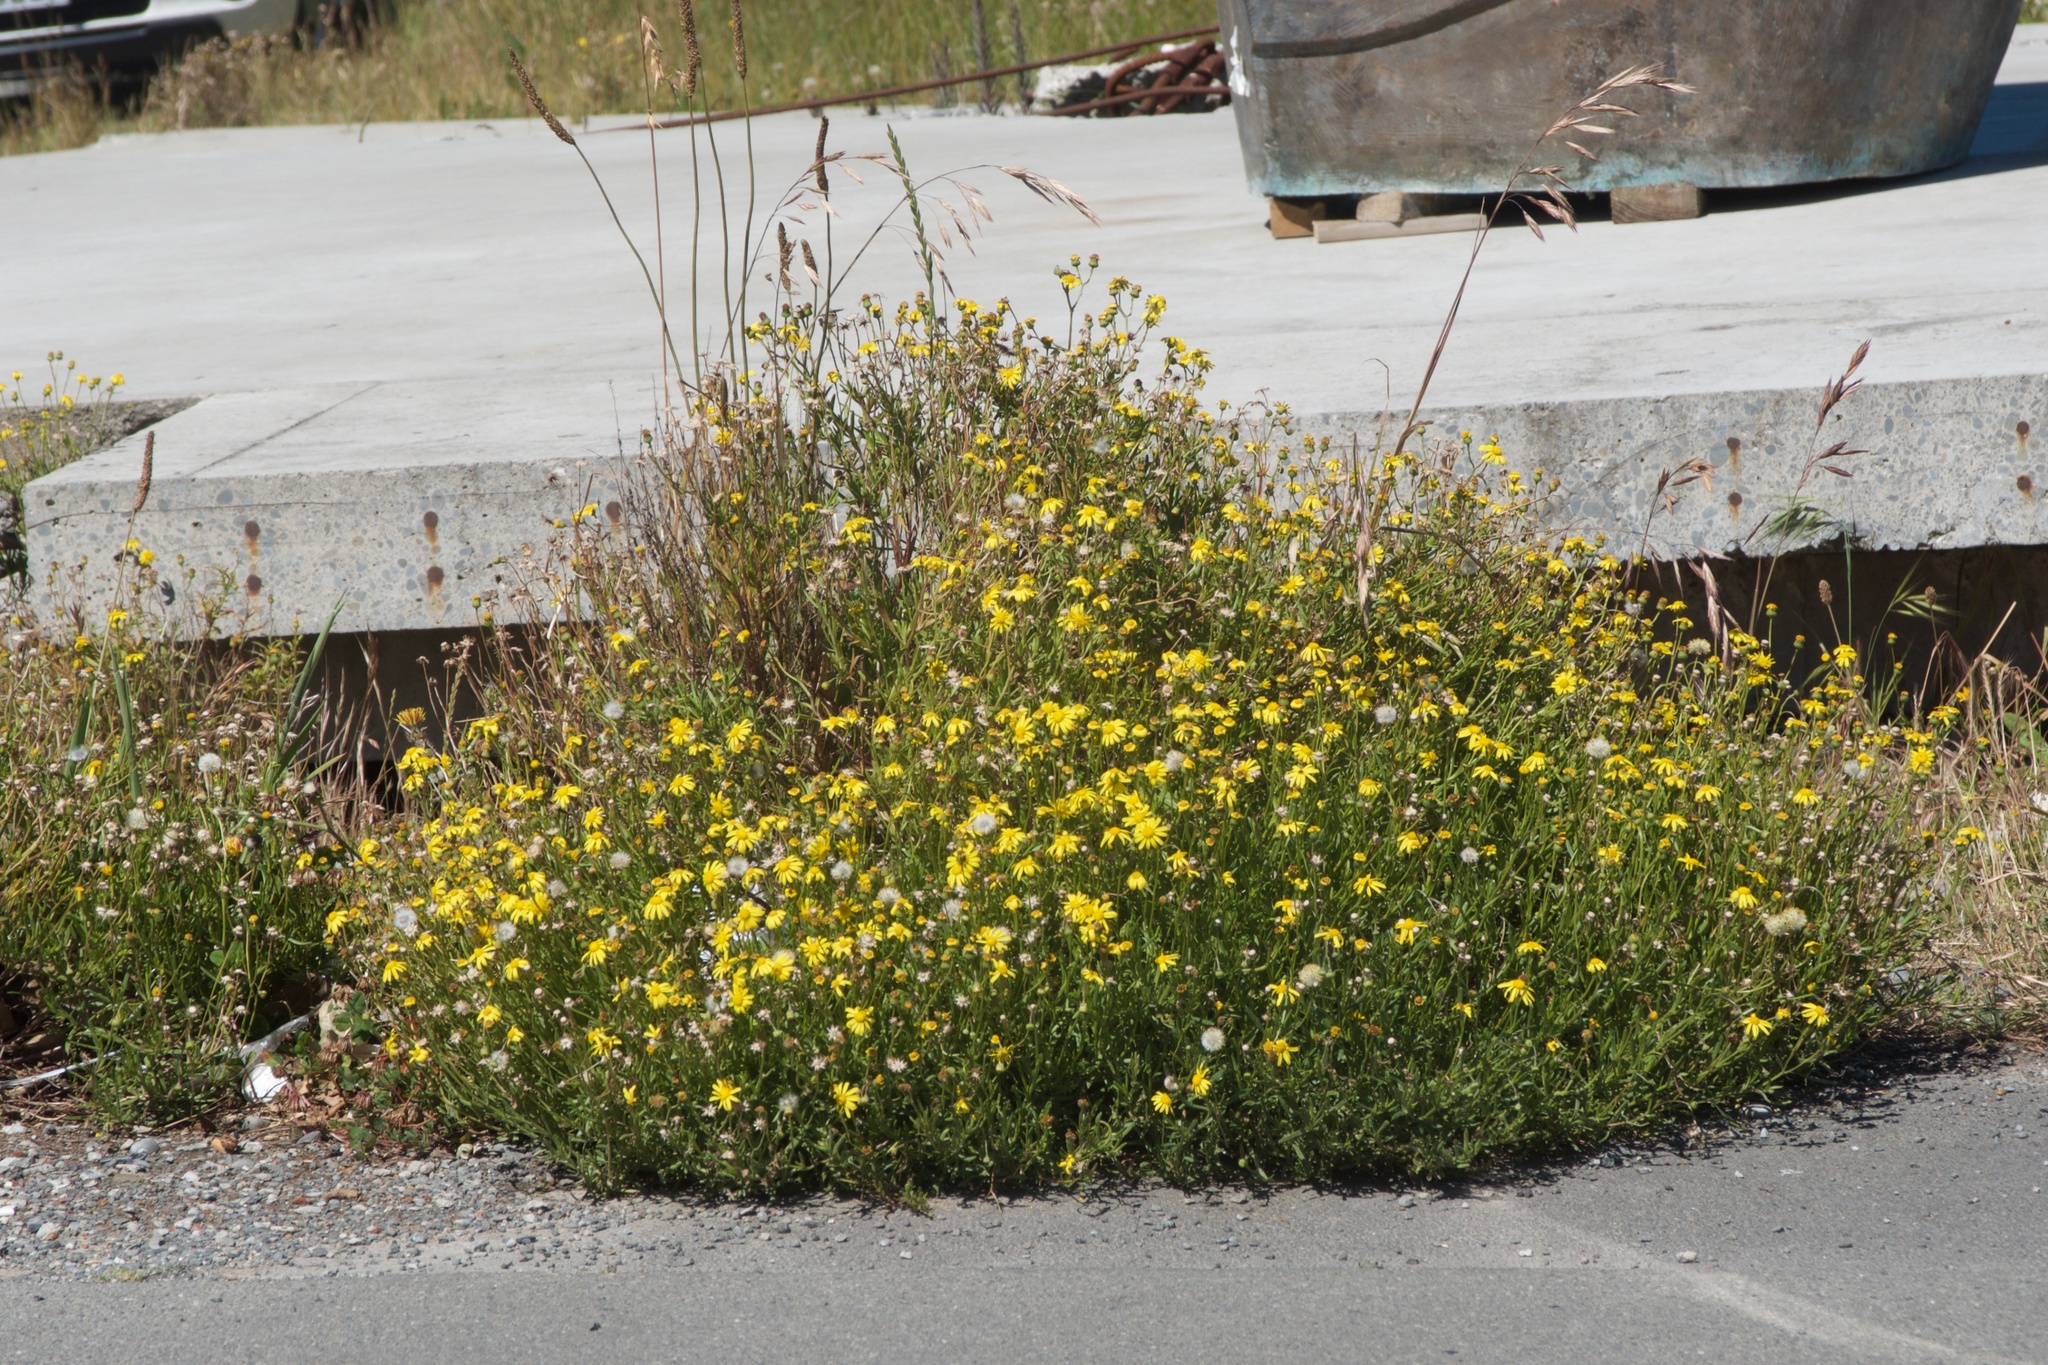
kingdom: Plantae
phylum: Tracheophyta
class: Magnoliopsida
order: Asterales
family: Asteraceae
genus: Senecio
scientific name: Senecio skirrhodon
